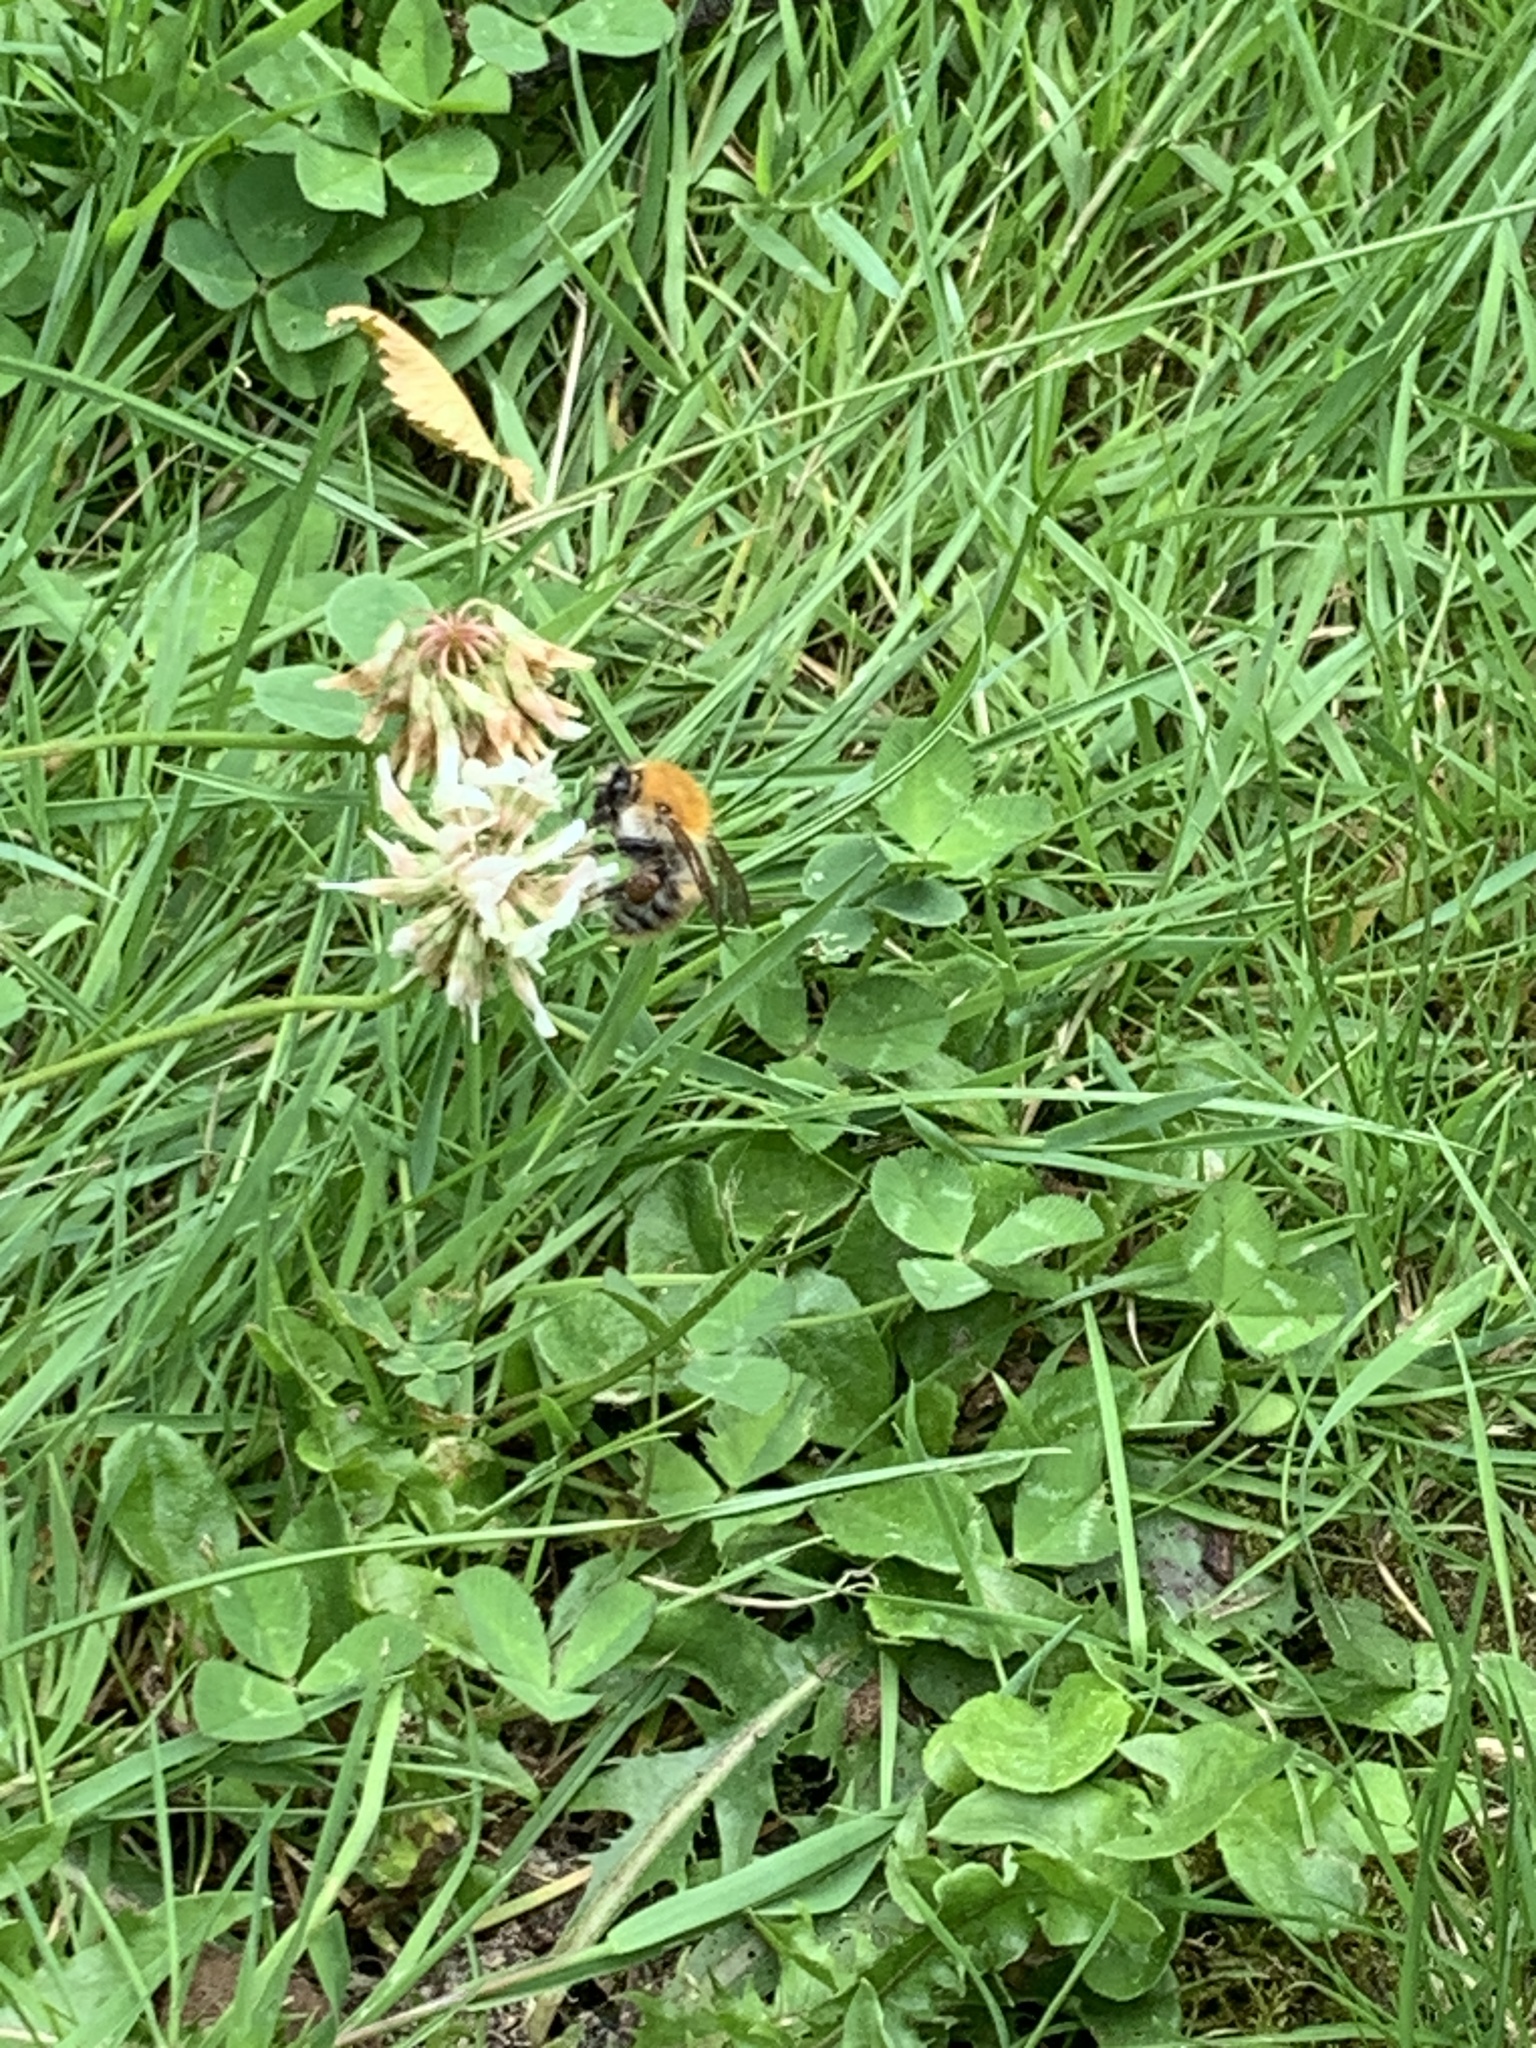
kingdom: Animalia
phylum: Arthropoda
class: Insecta
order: Hymenoptera
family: Apidae
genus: Bombus
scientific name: Bombus pascuorum
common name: Common carder bee
